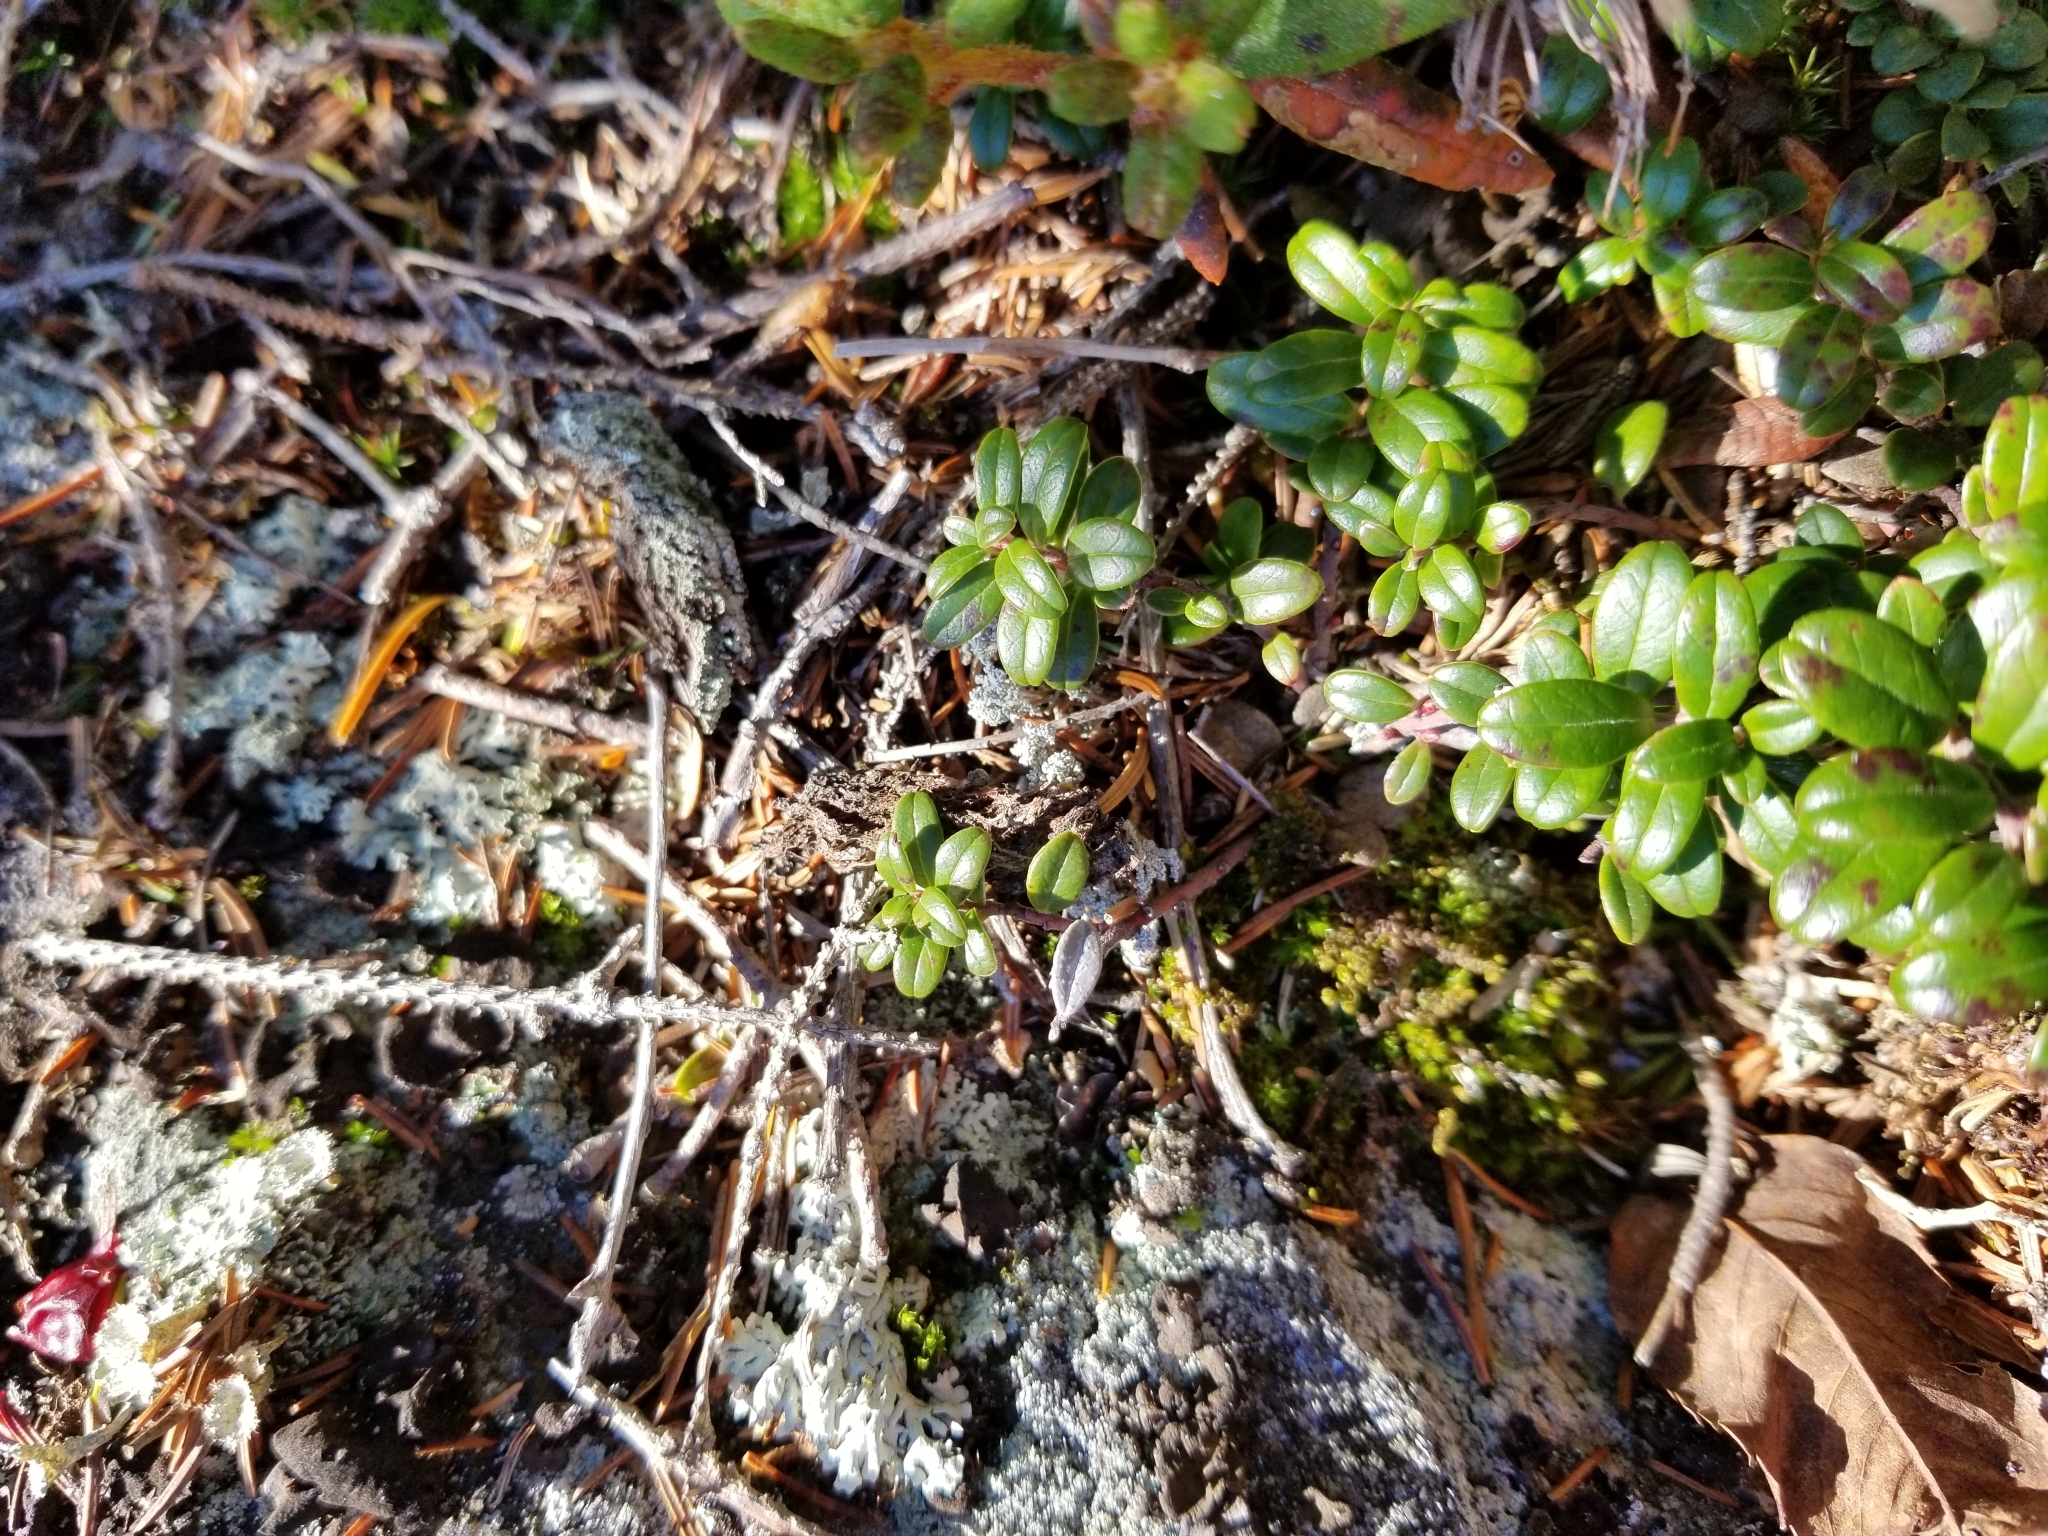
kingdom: Plantae
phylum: Tracheophyta
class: Magnoliopsida
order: Ericales
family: Ericaceae
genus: Vaccinium
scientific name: Vaccinium vitis-idaea
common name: Cowberry
